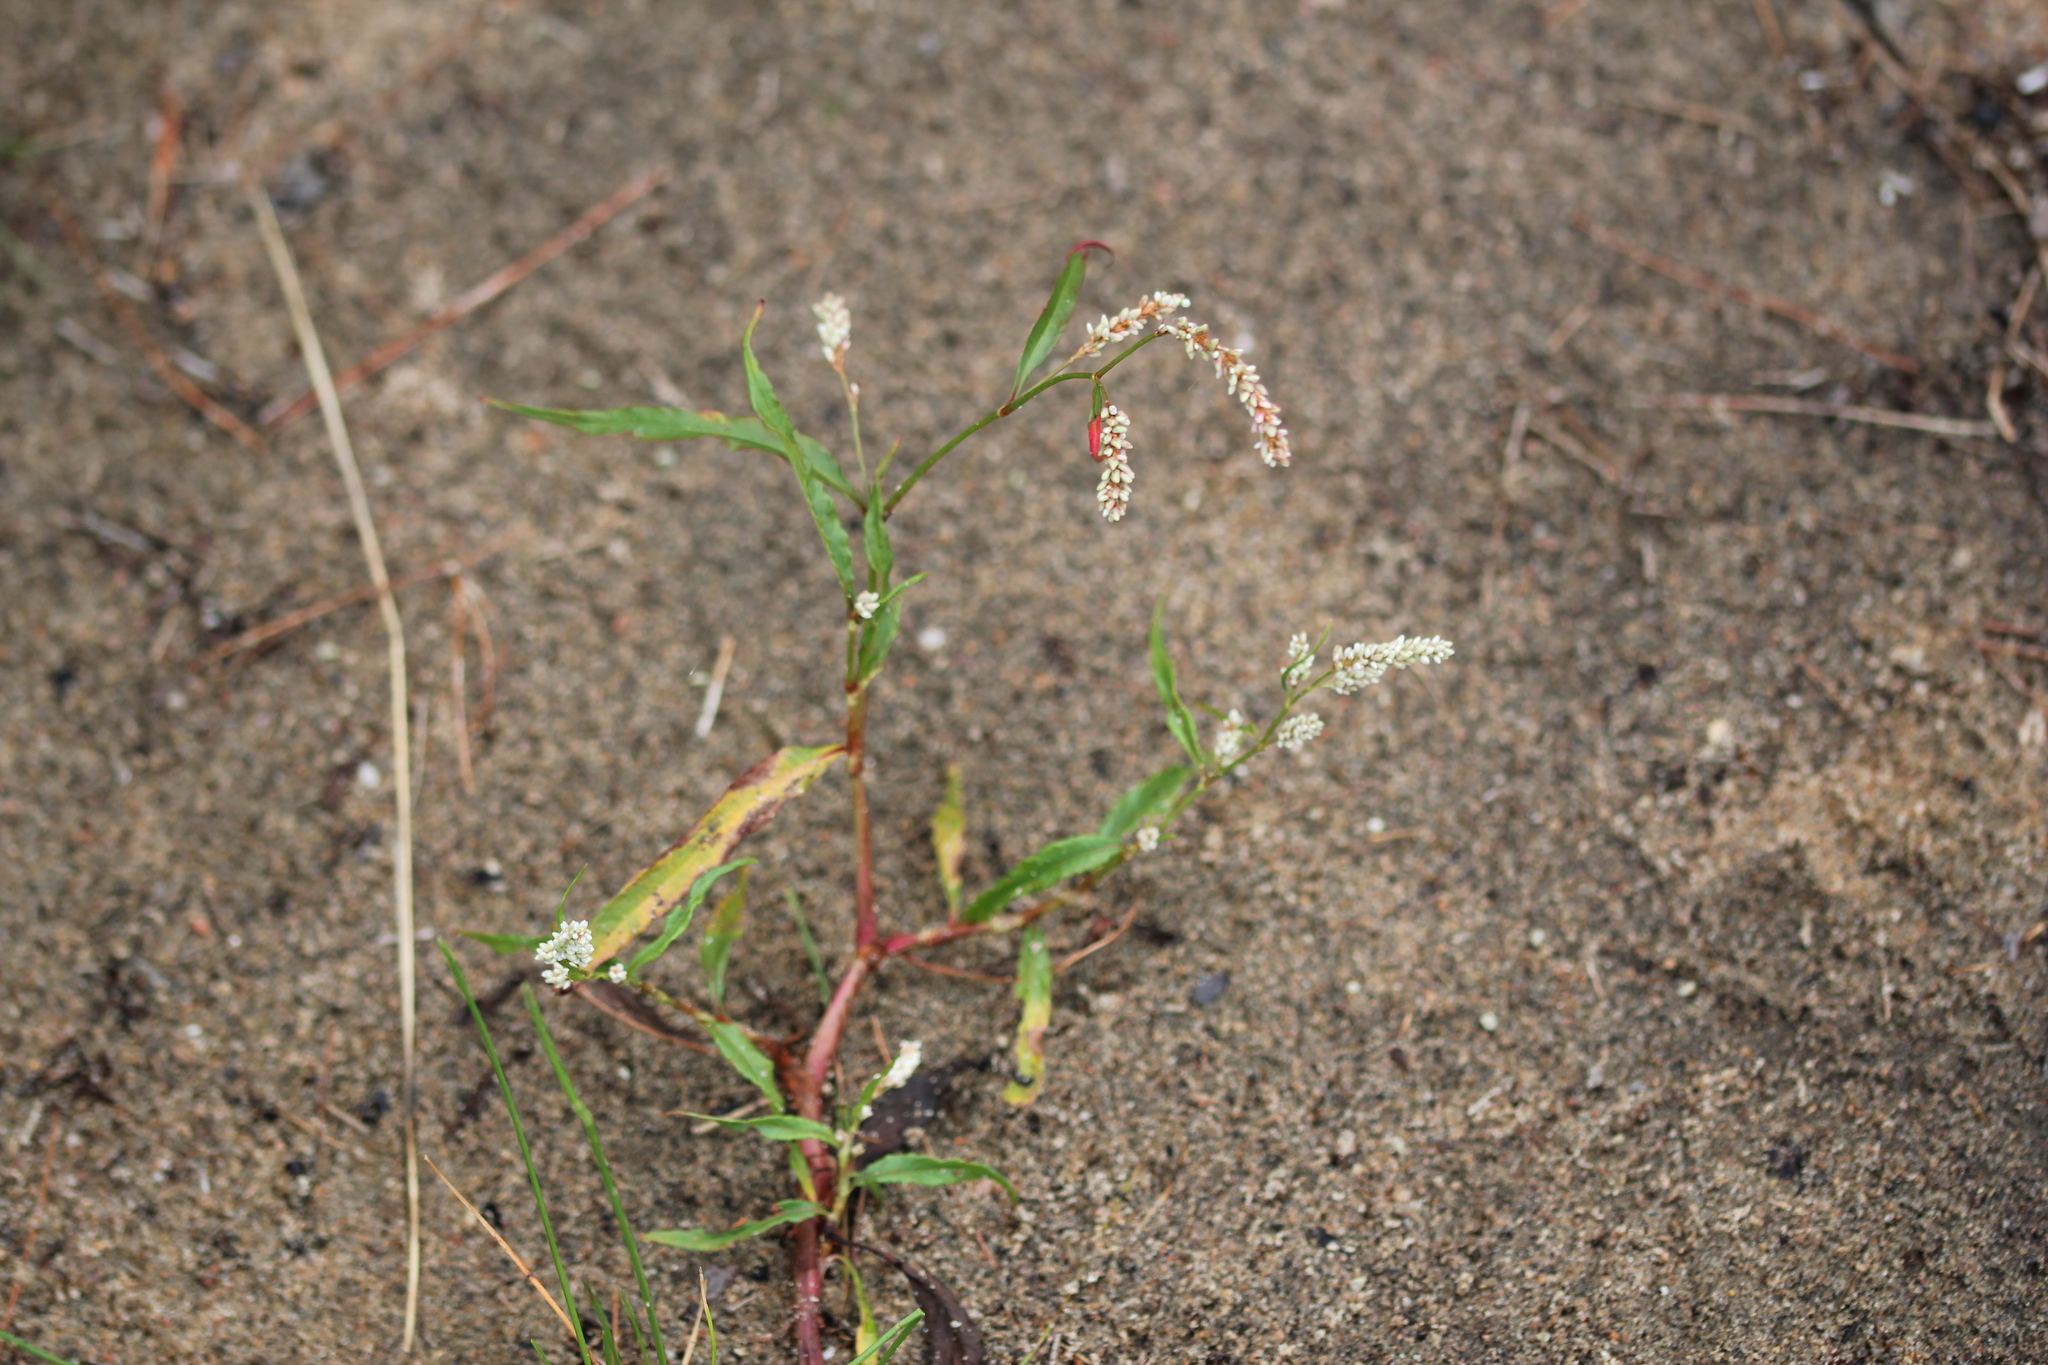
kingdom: Plantae
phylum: Tracheophyta
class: Magnoliopsida
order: Caryophyllales
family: Polygonaceae
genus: Persicaria
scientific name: Persicaria lapathifolia
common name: Curlytop knotweed
